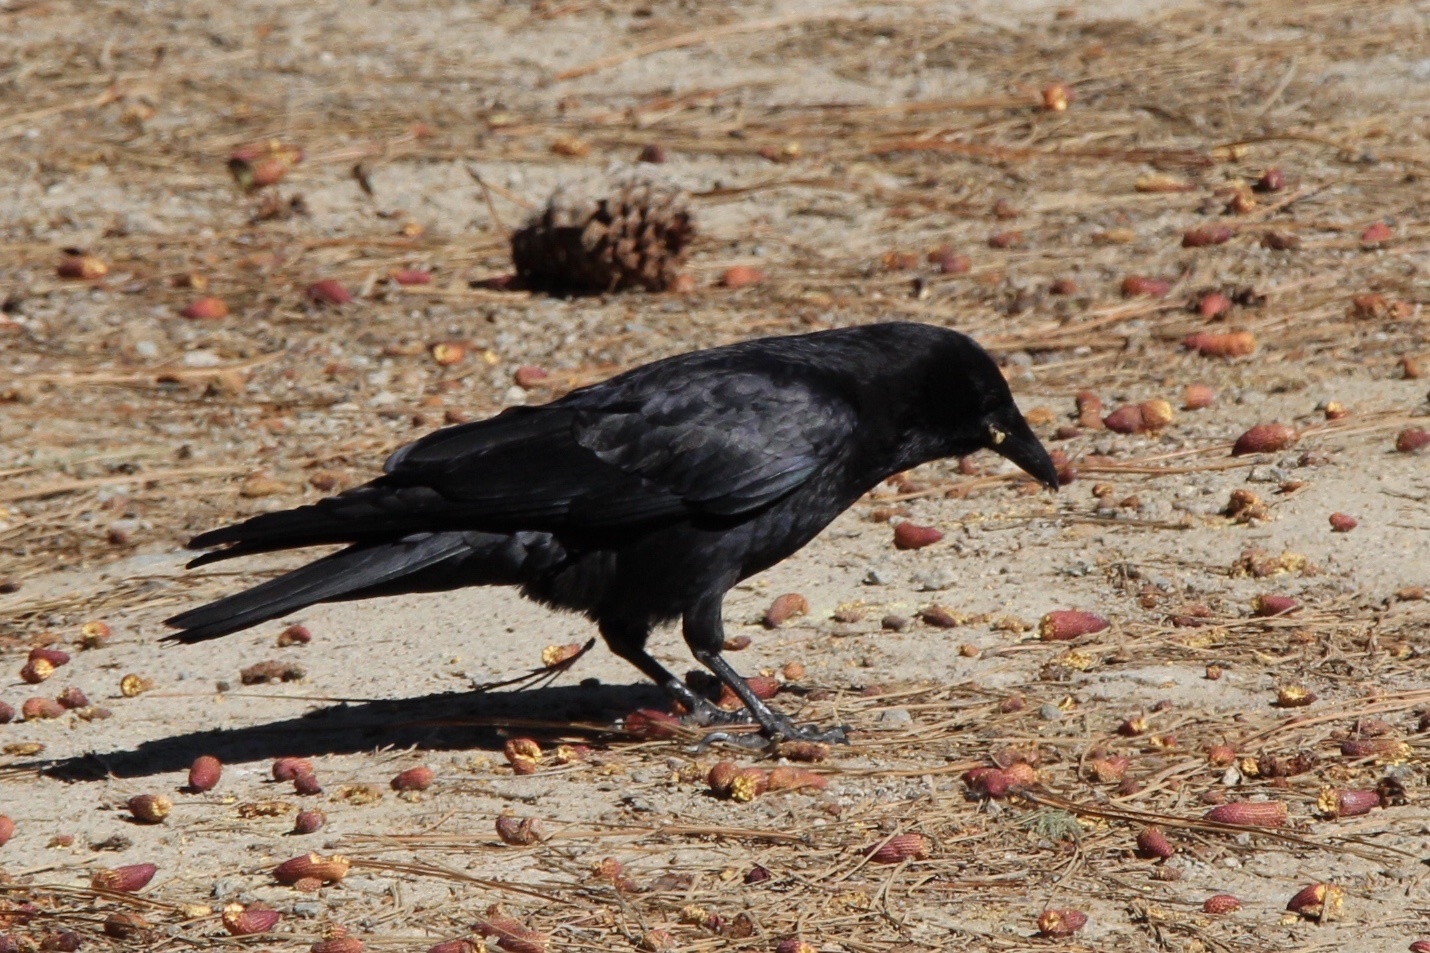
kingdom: Animalia
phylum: Chordata
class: Aves
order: Passeriformes
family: Corvidae
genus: Corvus
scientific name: Corvus brachyrhynchos
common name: American crow
